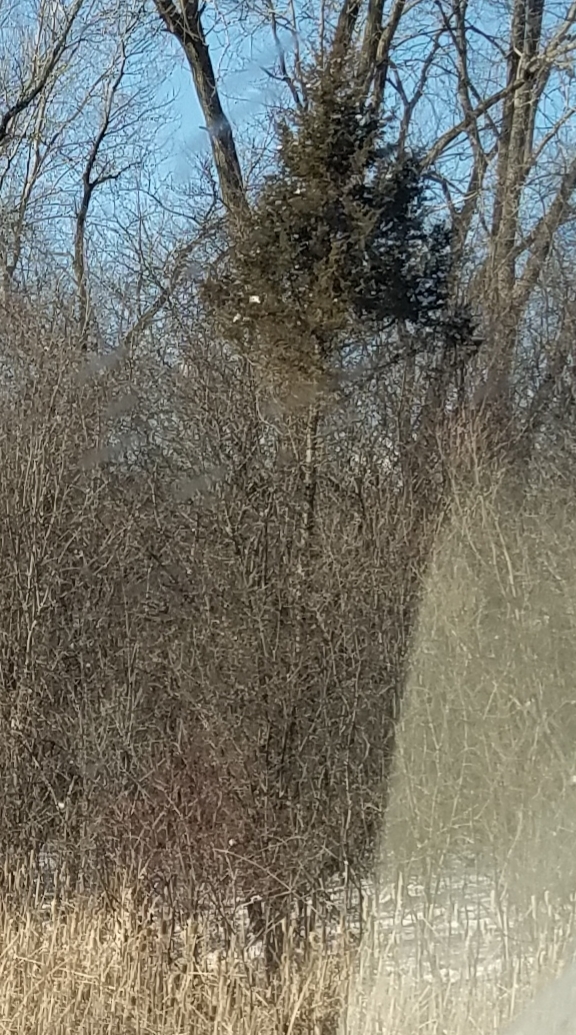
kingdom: Plantae
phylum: Tracheophyta
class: Pinopsida
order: Pinales
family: Cupressaceae
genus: Juniperus
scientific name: Juniperus virginiana
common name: Red juniper
